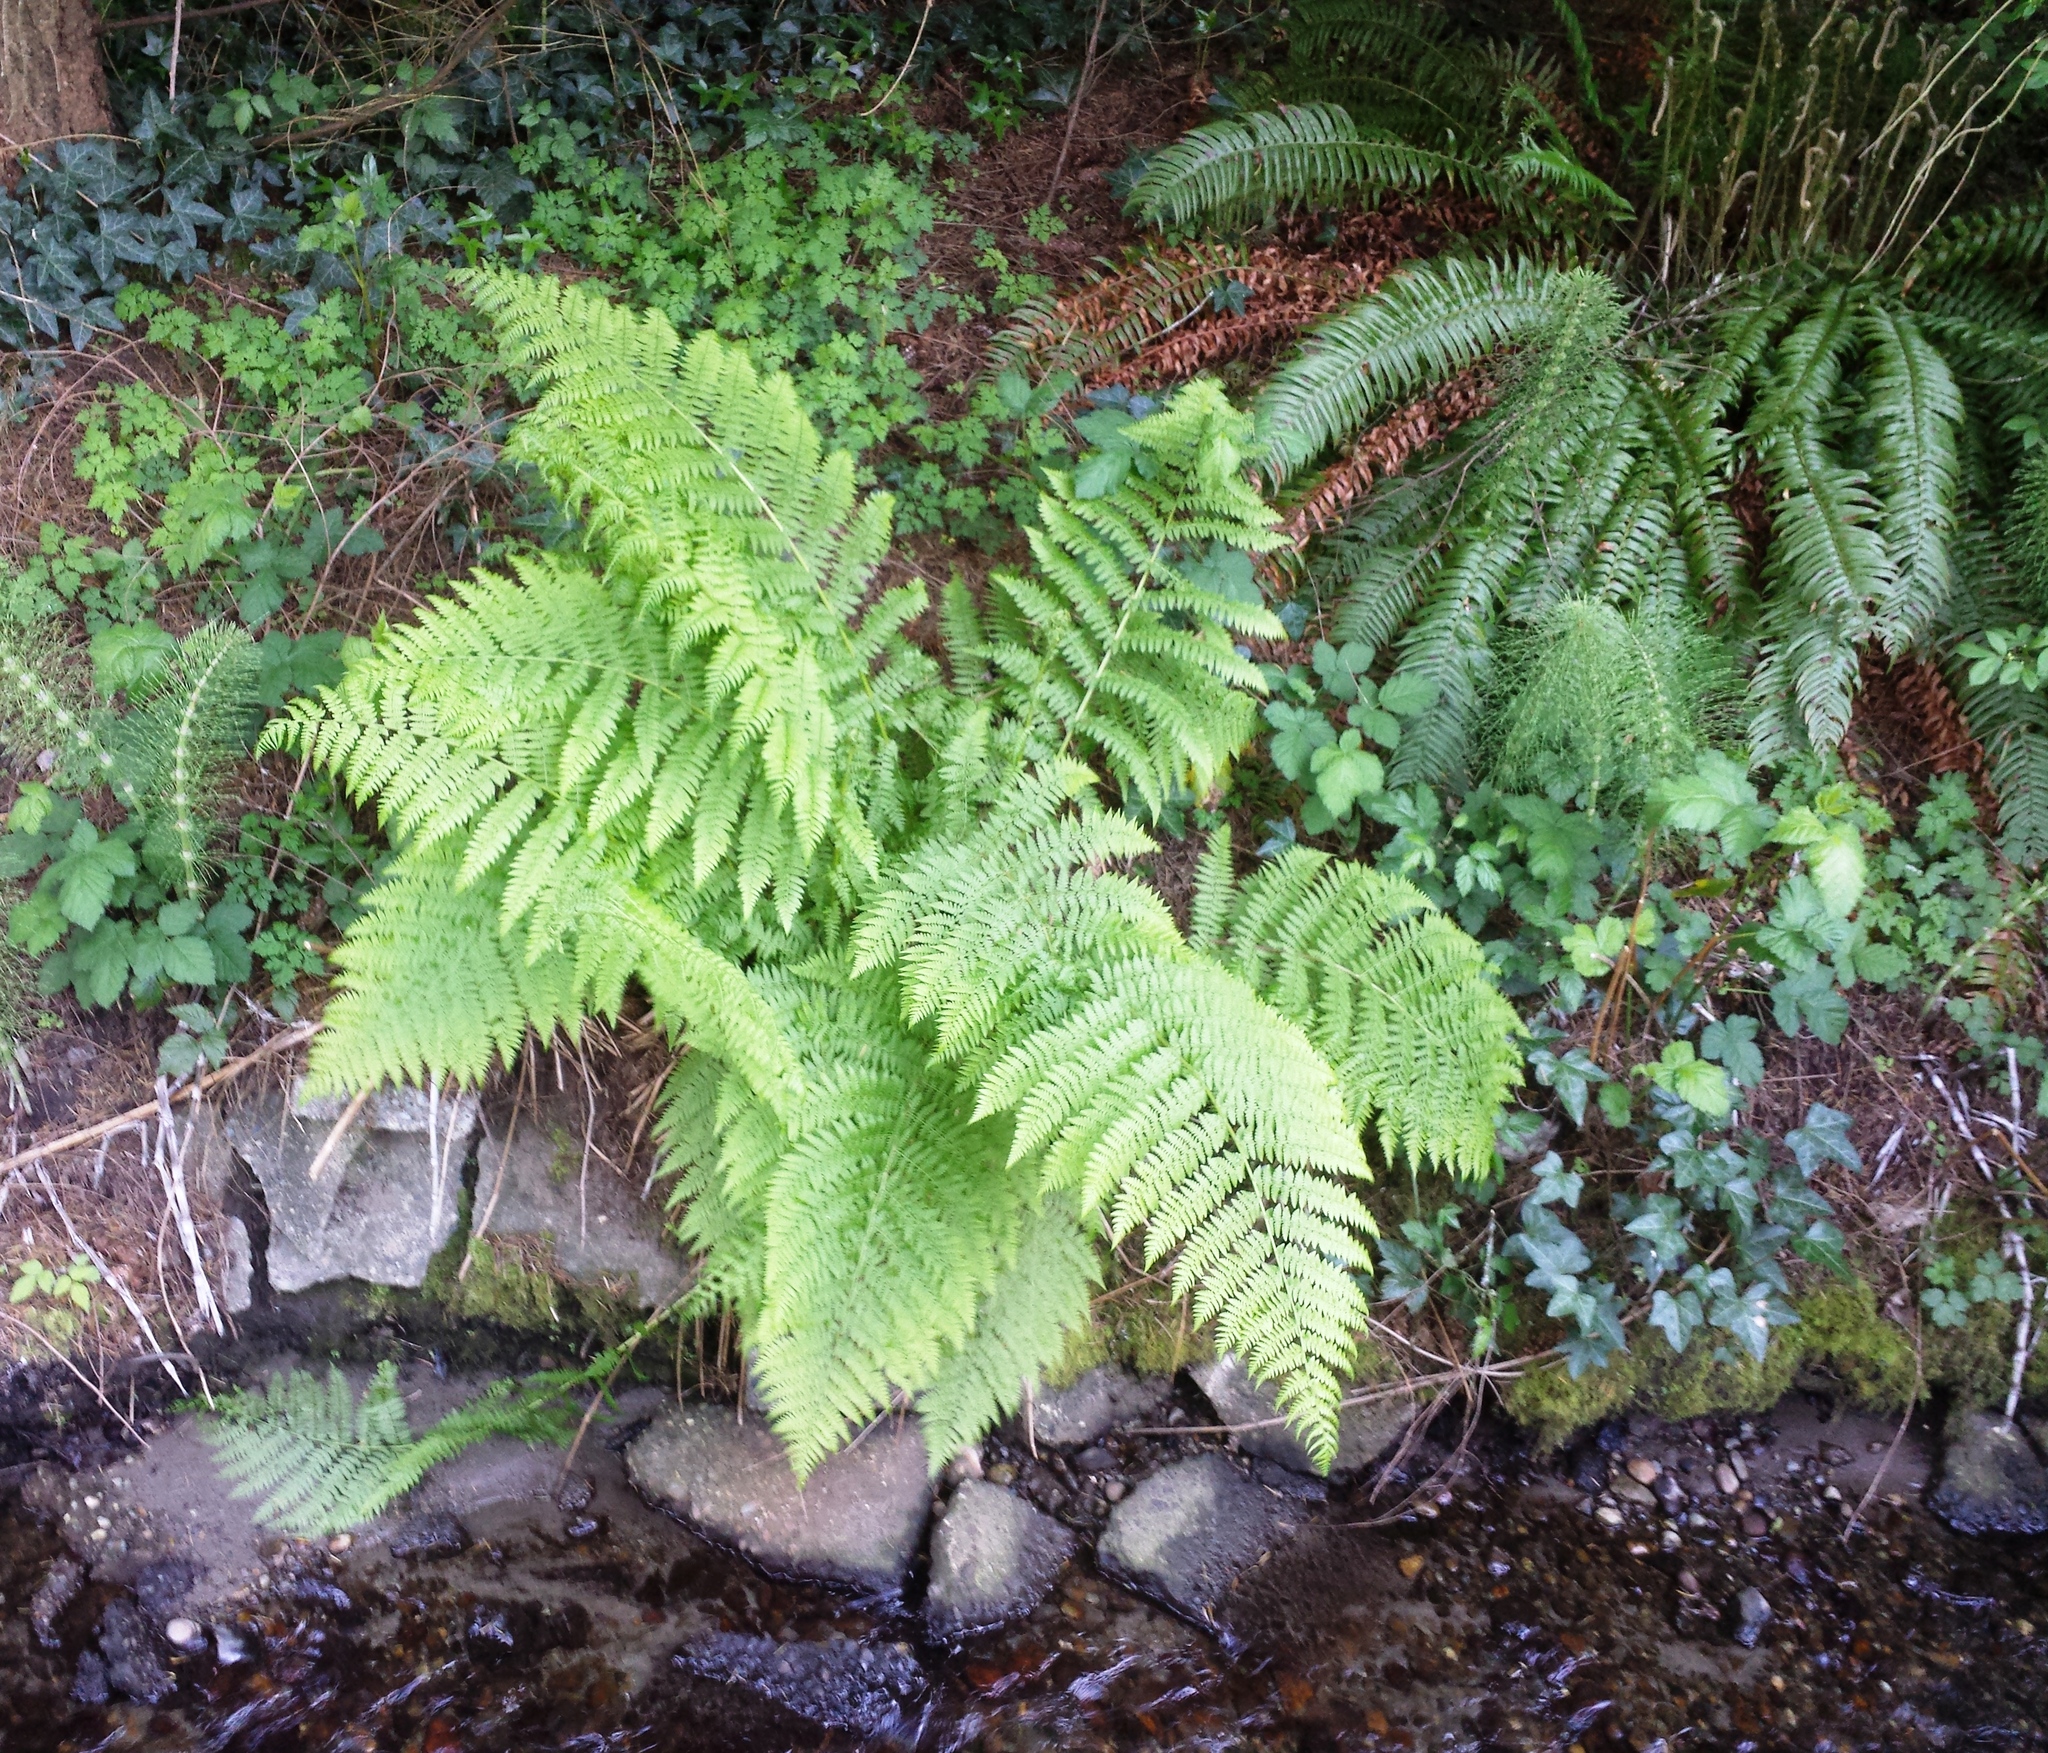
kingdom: Plantae
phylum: Tracheophyta
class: Polypodiopsida
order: Polypodiales
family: Athyriaceae
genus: Athyrium
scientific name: Athyrium cyclosorum
